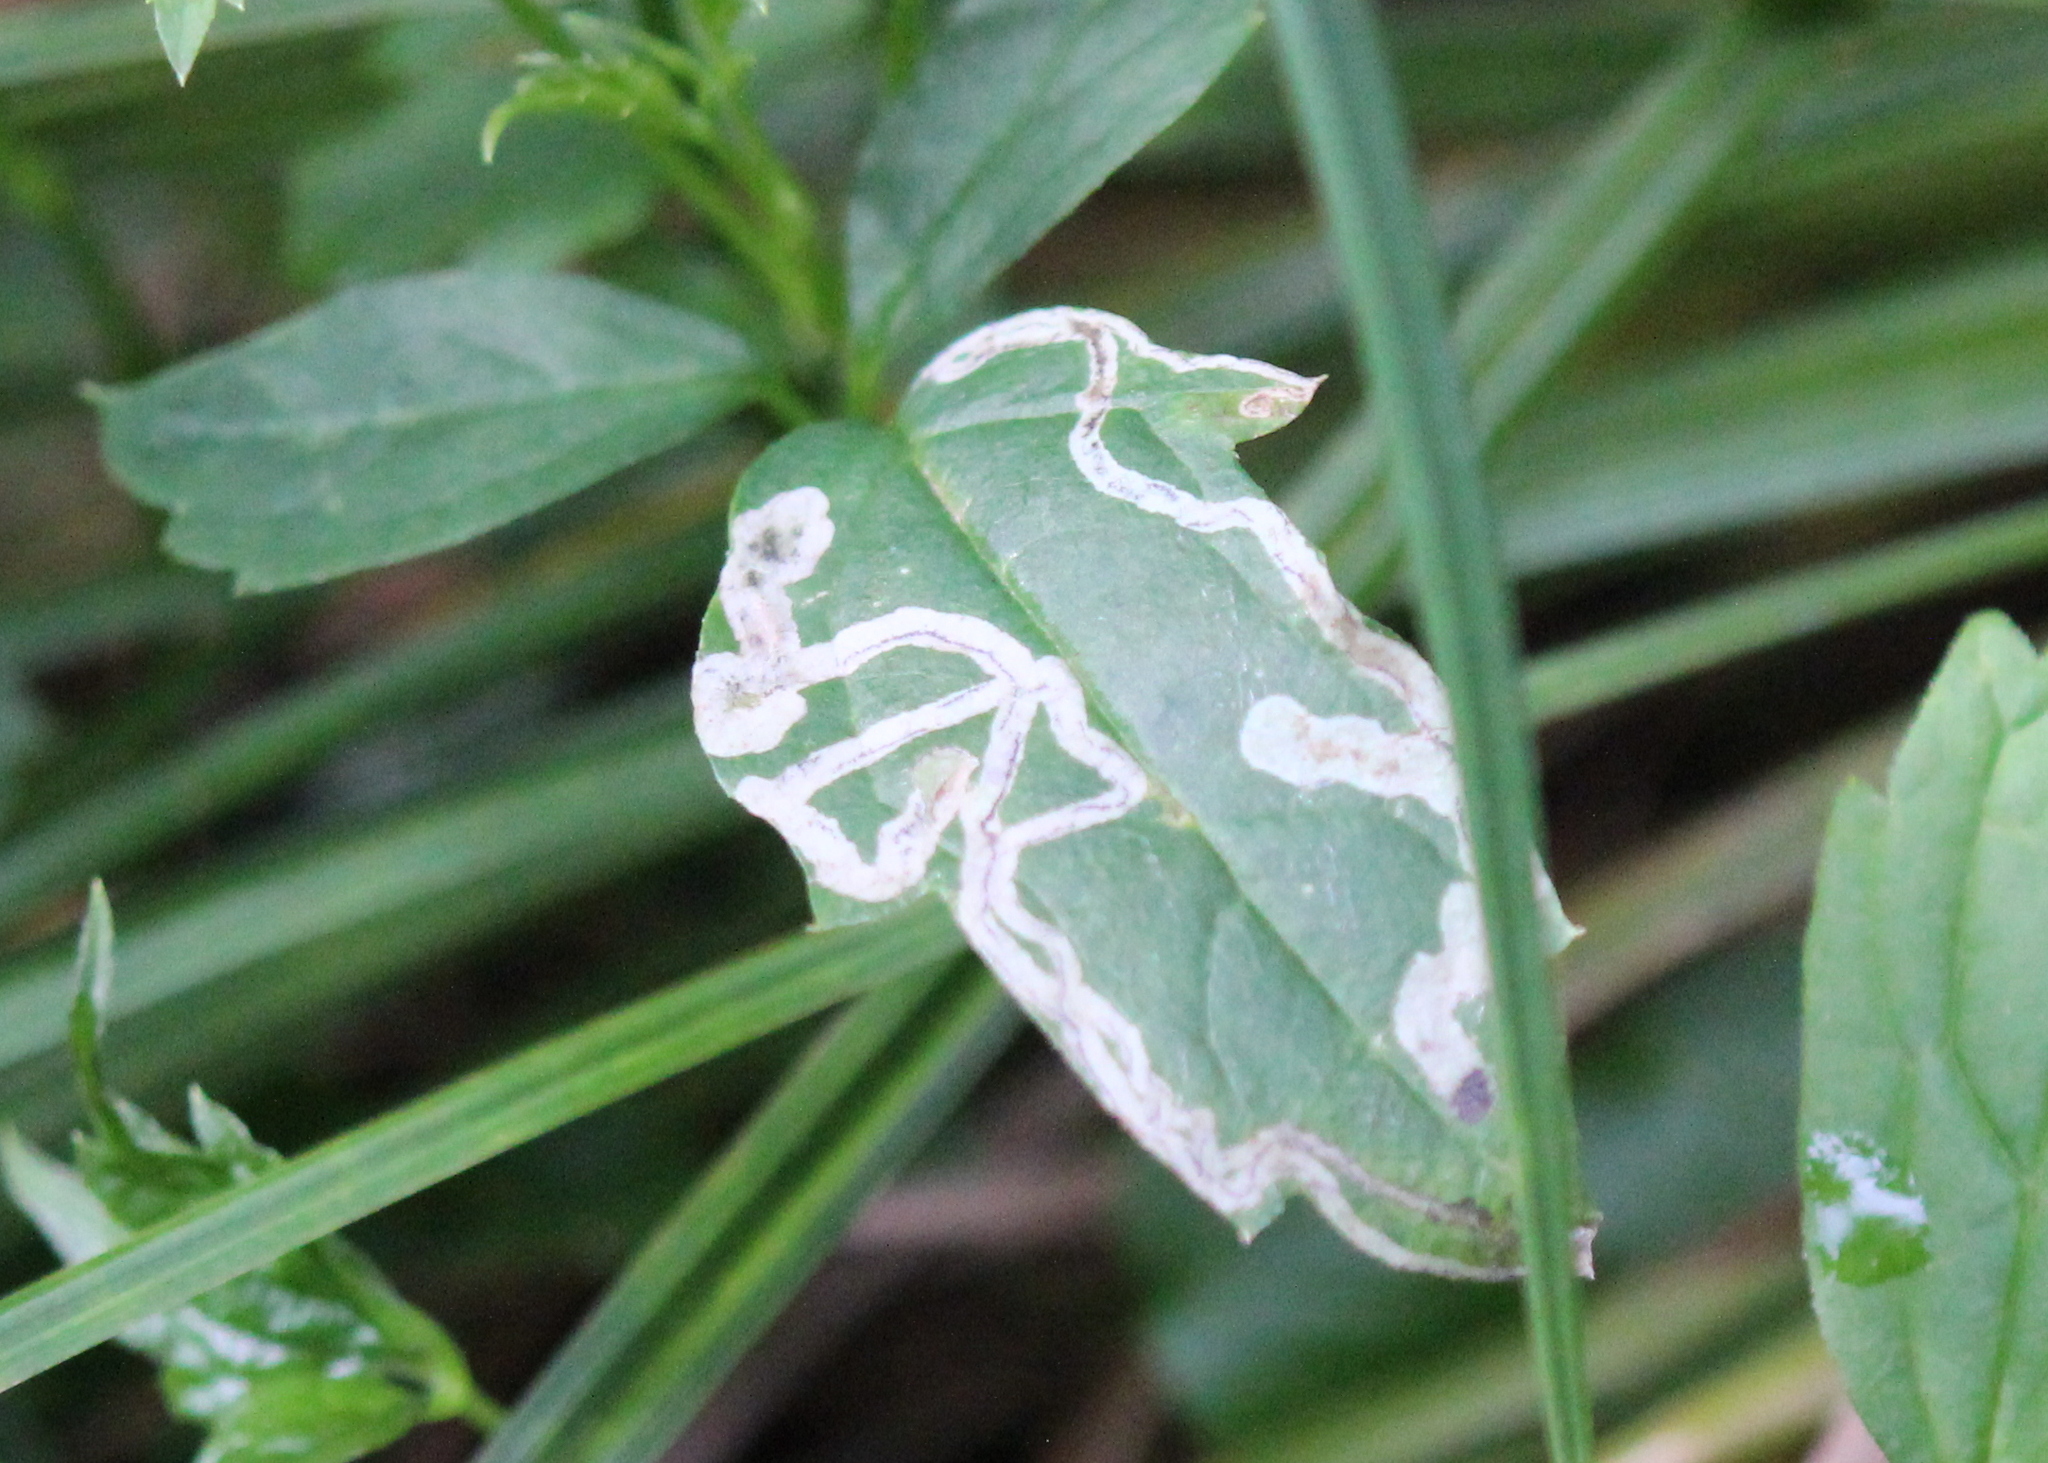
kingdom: Animalia
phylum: Arthropoda
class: Insecta
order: Diptera
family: Agromyzidae
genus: Phytomyza
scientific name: Phytomyza loewii
